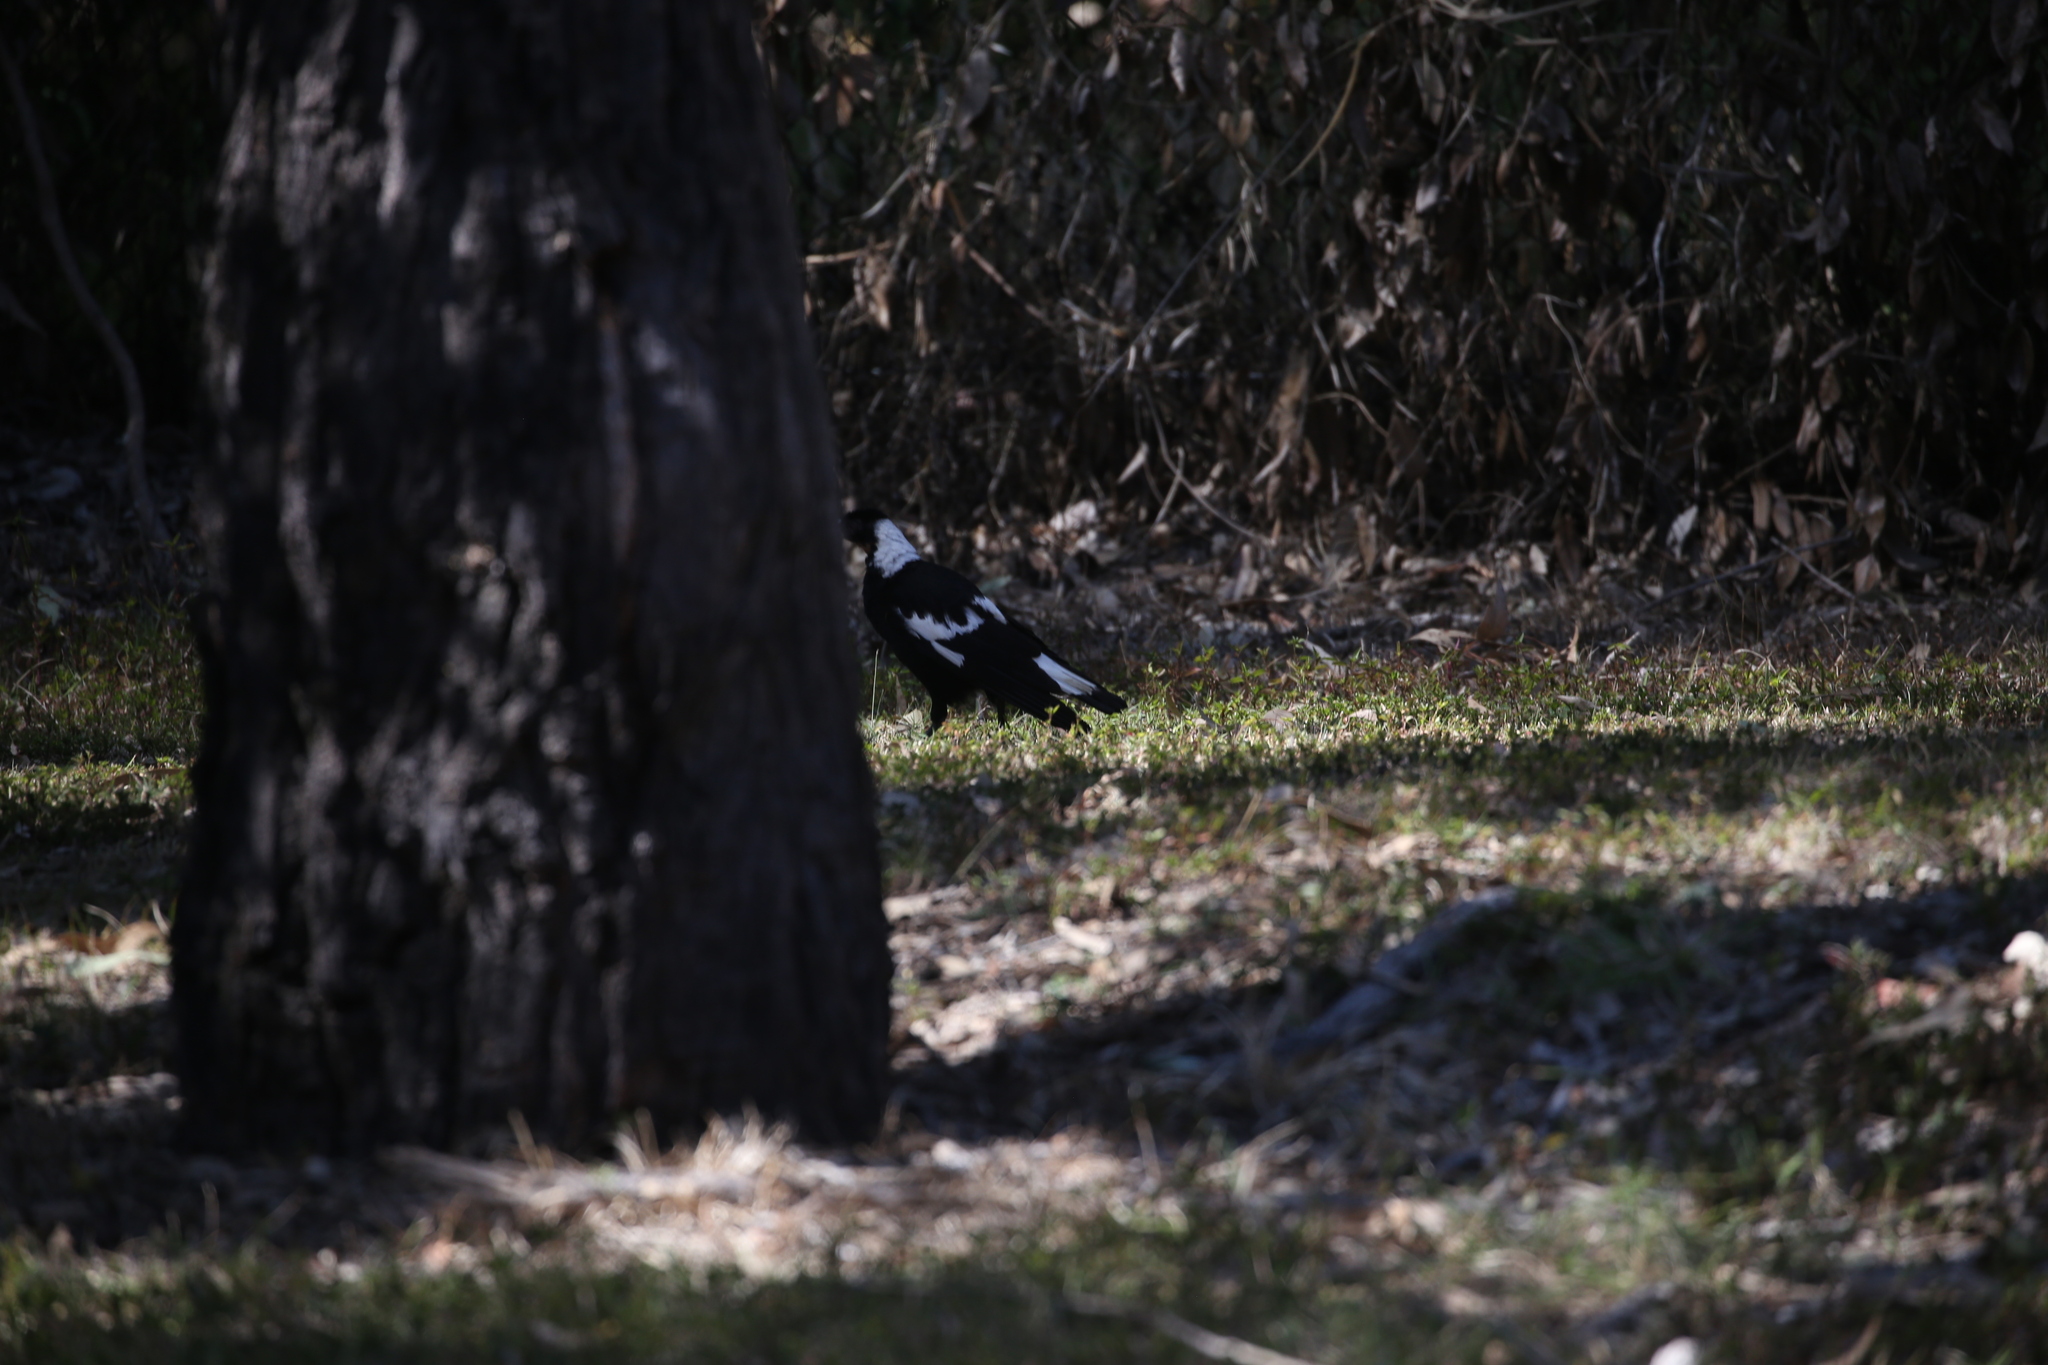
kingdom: Animalia
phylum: Chordata
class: Aves
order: Passeriformes
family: Cracticidae
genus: Gymnorhina
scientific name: Gymnorhina tibicen
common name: Australian magpie
